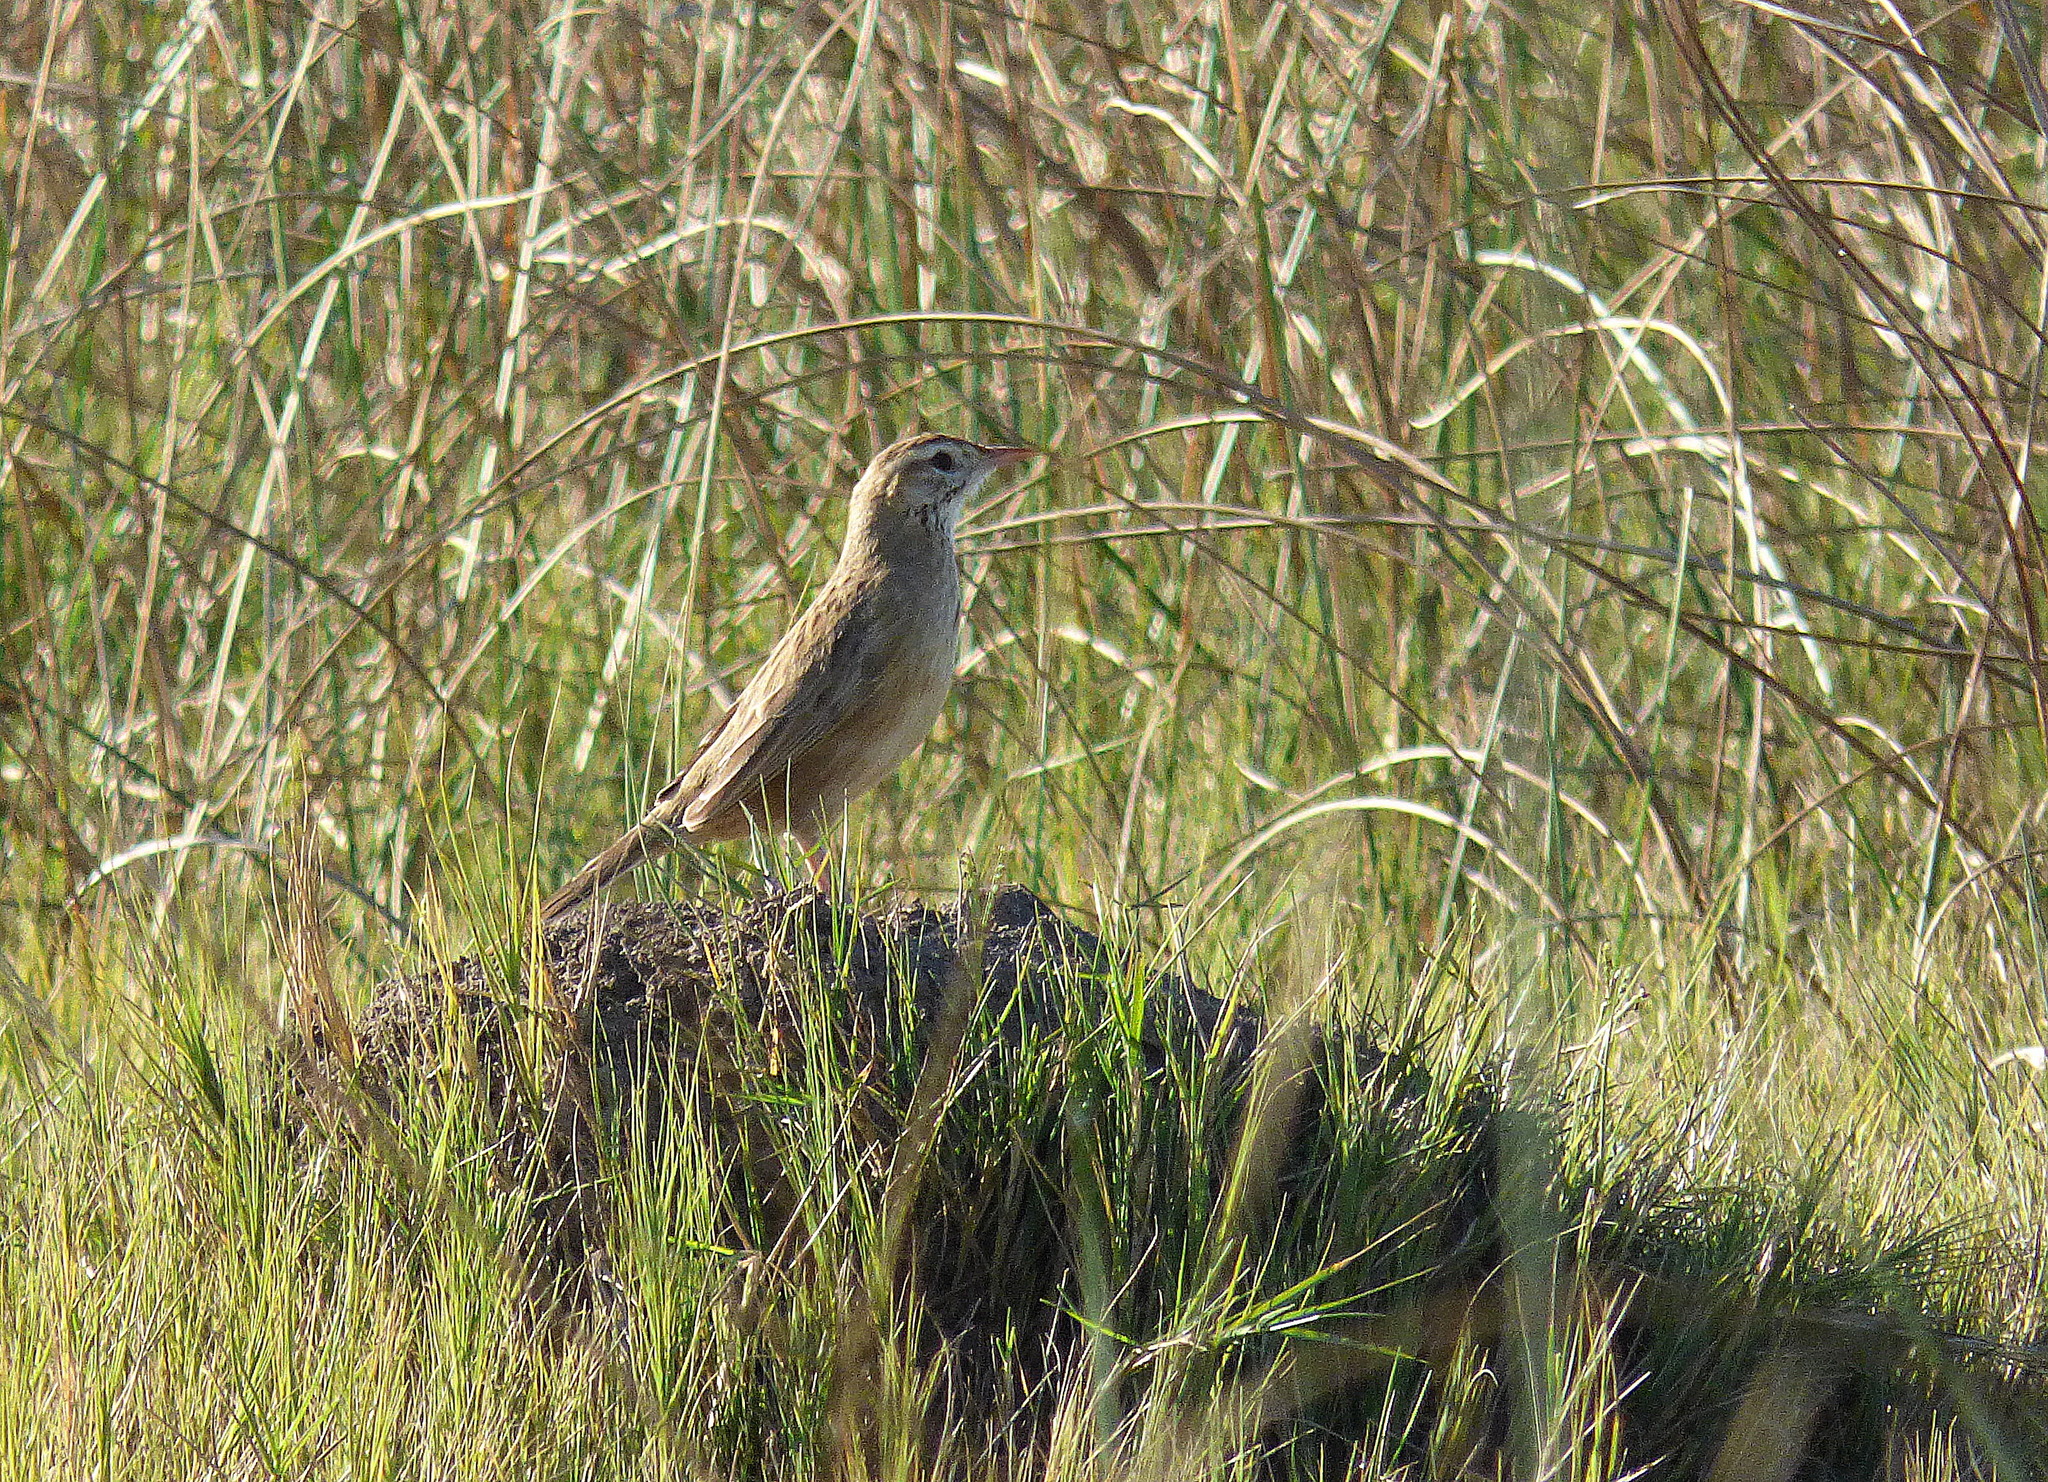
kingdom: Animalia
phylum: Chordata
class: Aves
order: Passeriformes
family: Furnariidae
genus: Anumbius
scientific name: Anumbius annumbi
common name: Firewood-gatherer
